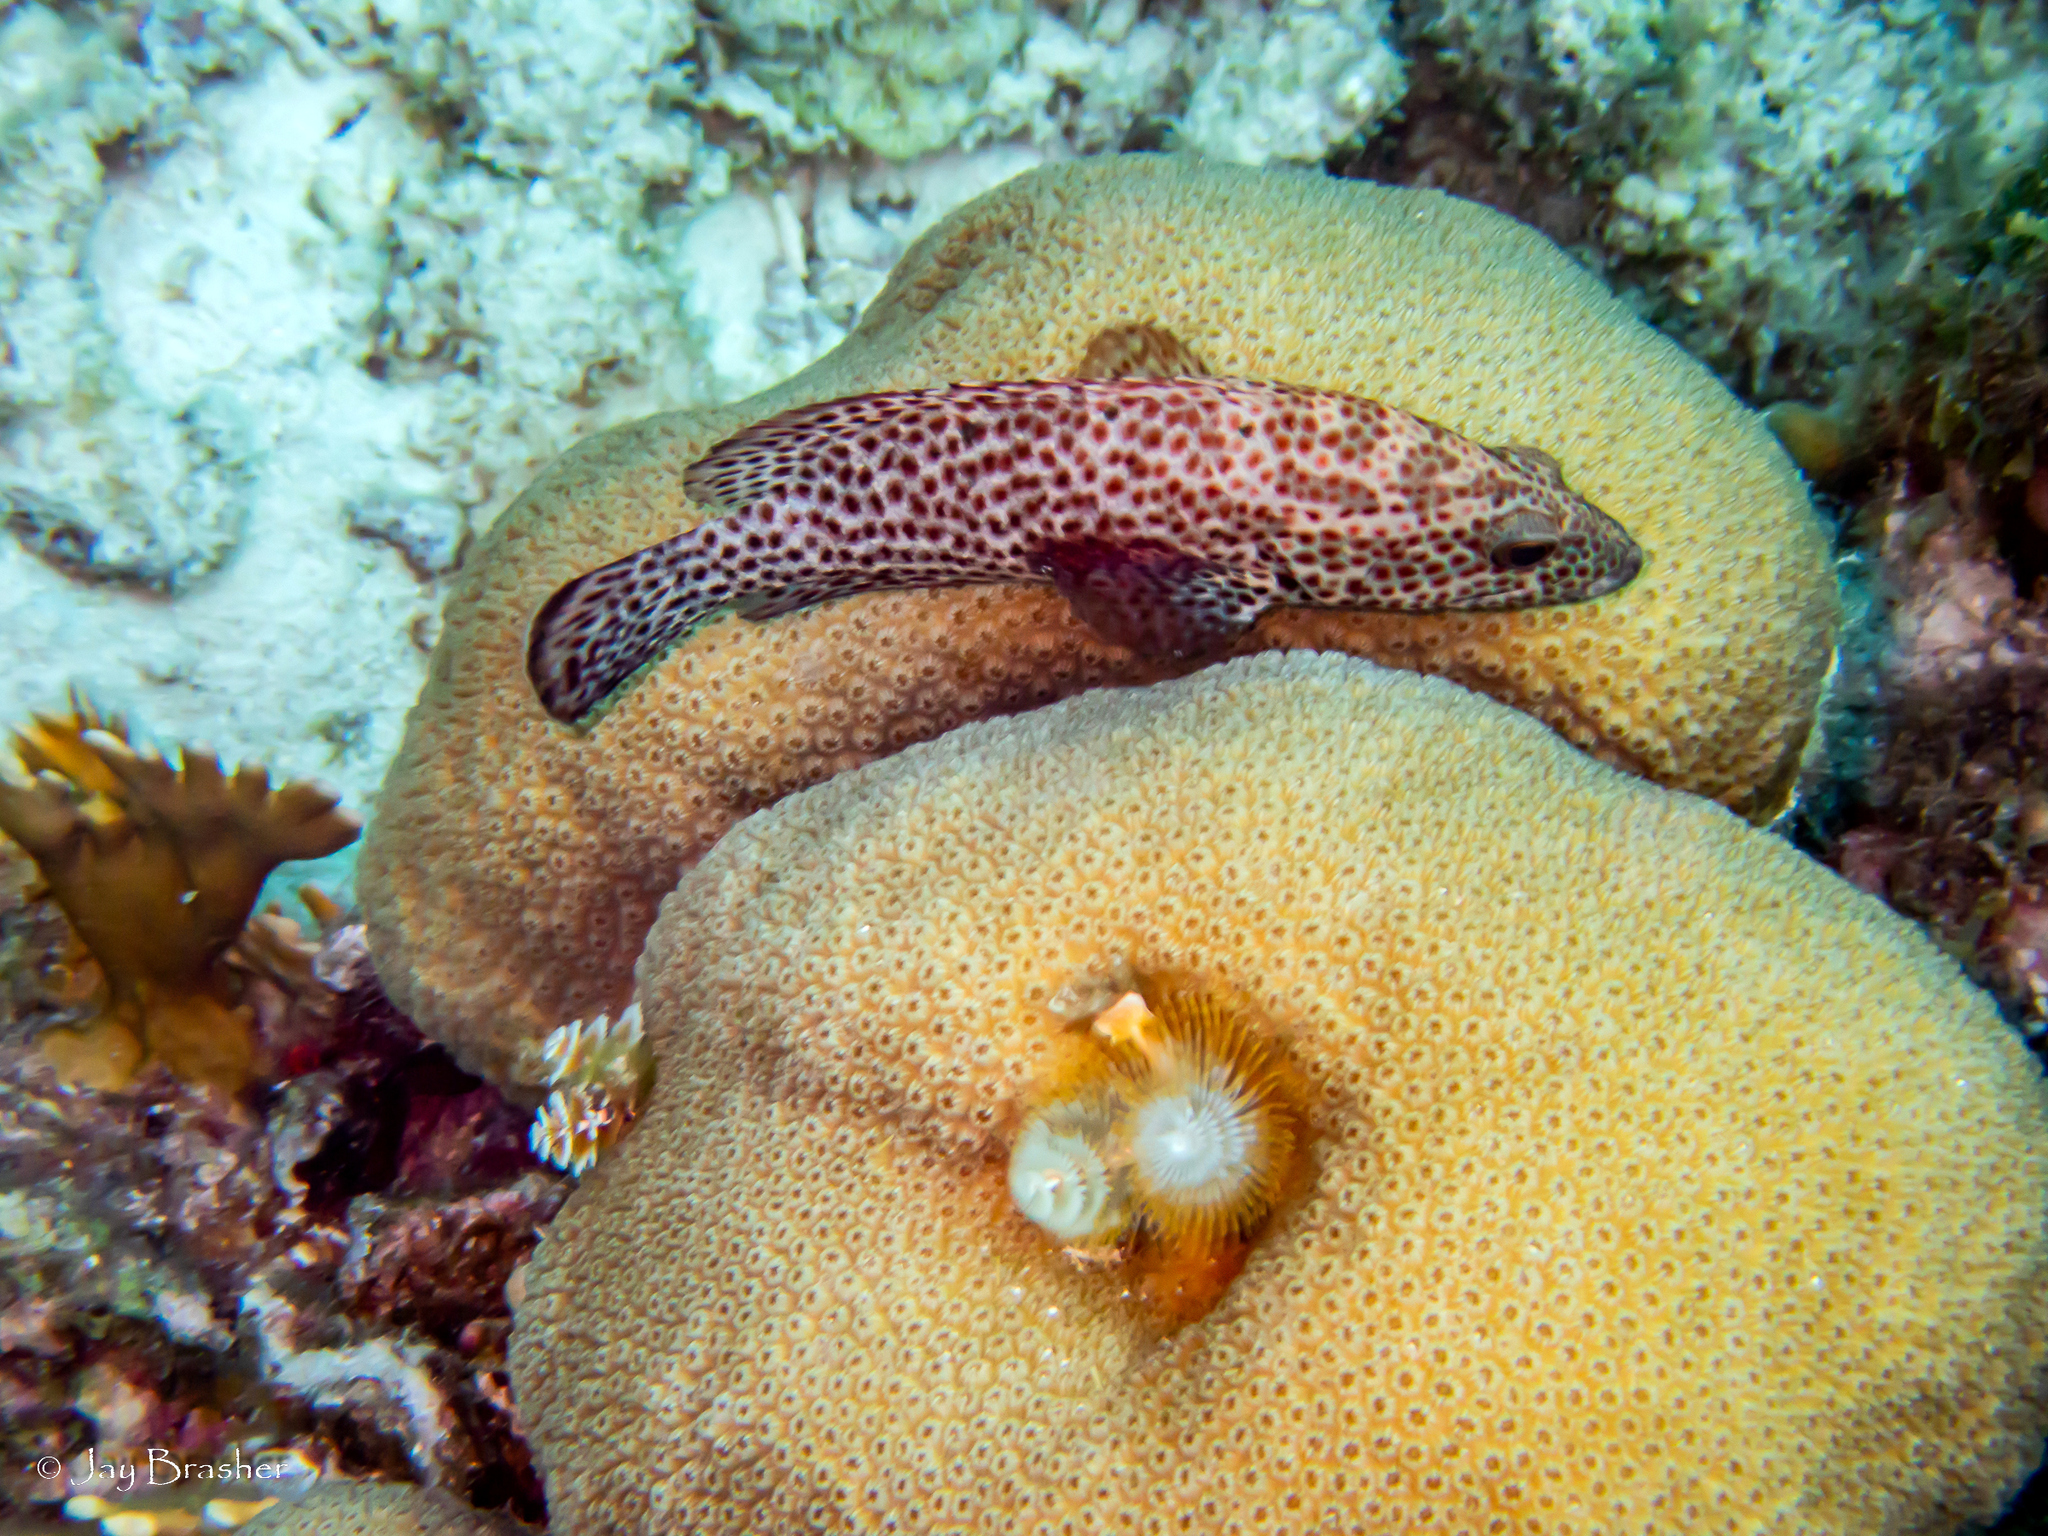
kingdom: Animalia
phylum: Chordata
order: Perciformes
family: Serranidae
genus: Cephalopholis
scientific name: Cephalopholis cruentata
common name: Graysby
